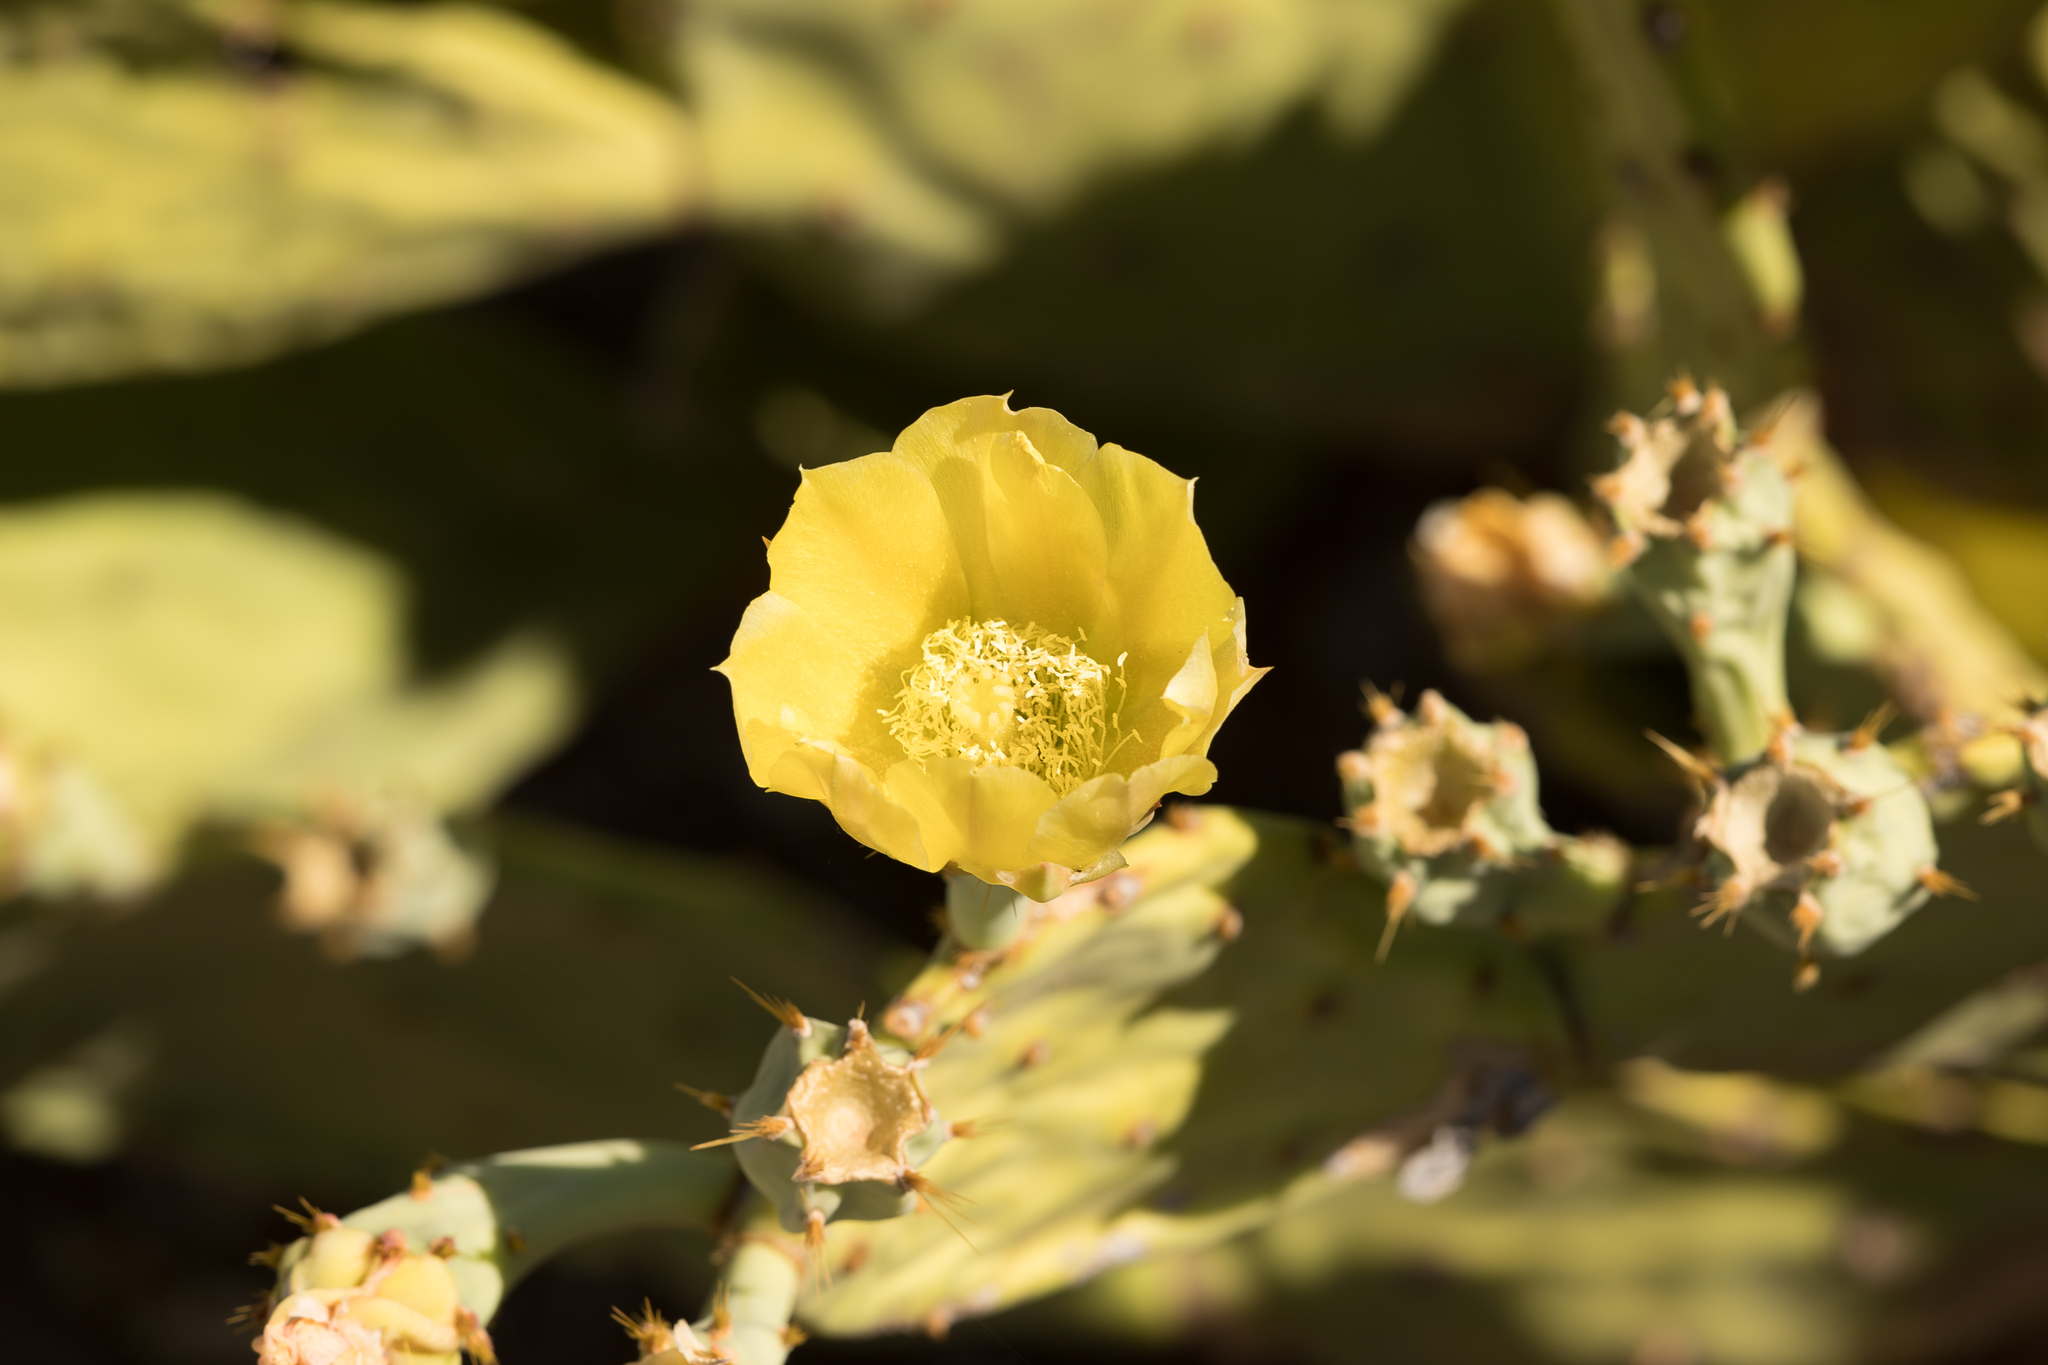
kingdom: Plantae
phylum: Tracheophyta
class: Magnoliopsida
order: Caryophyllales
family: Cactaceae
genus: Opuntia
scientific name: Opuntia stricta
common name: Erect pricklypear
